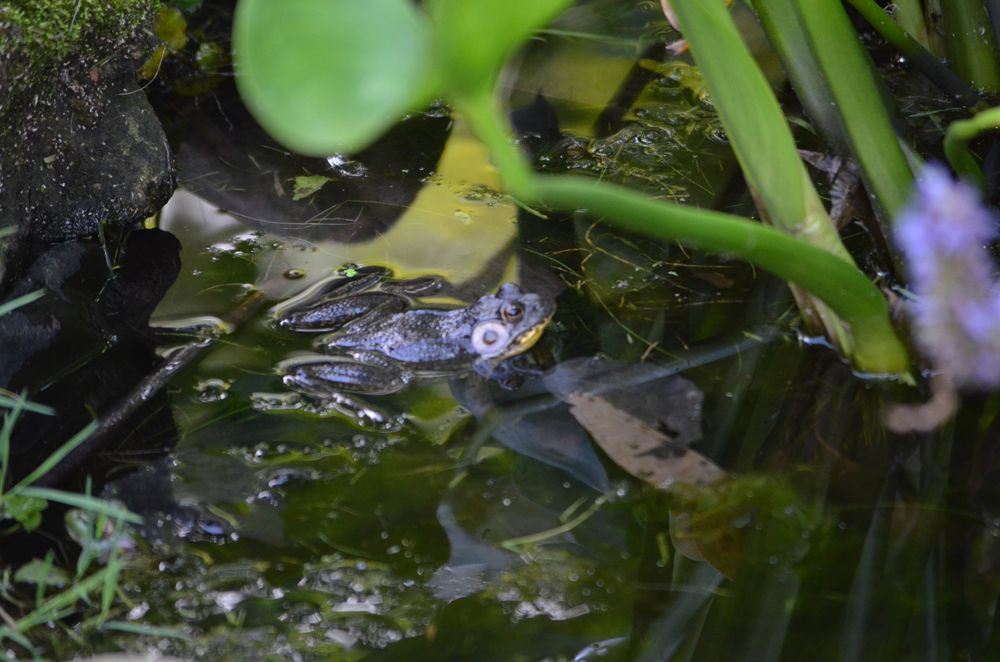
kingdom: Animalia
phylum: Chordata
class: Amphibia
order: Anura
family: Ranidae
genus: Lithobates
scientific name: Lithobates catesbeianus
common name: American bullfrog
